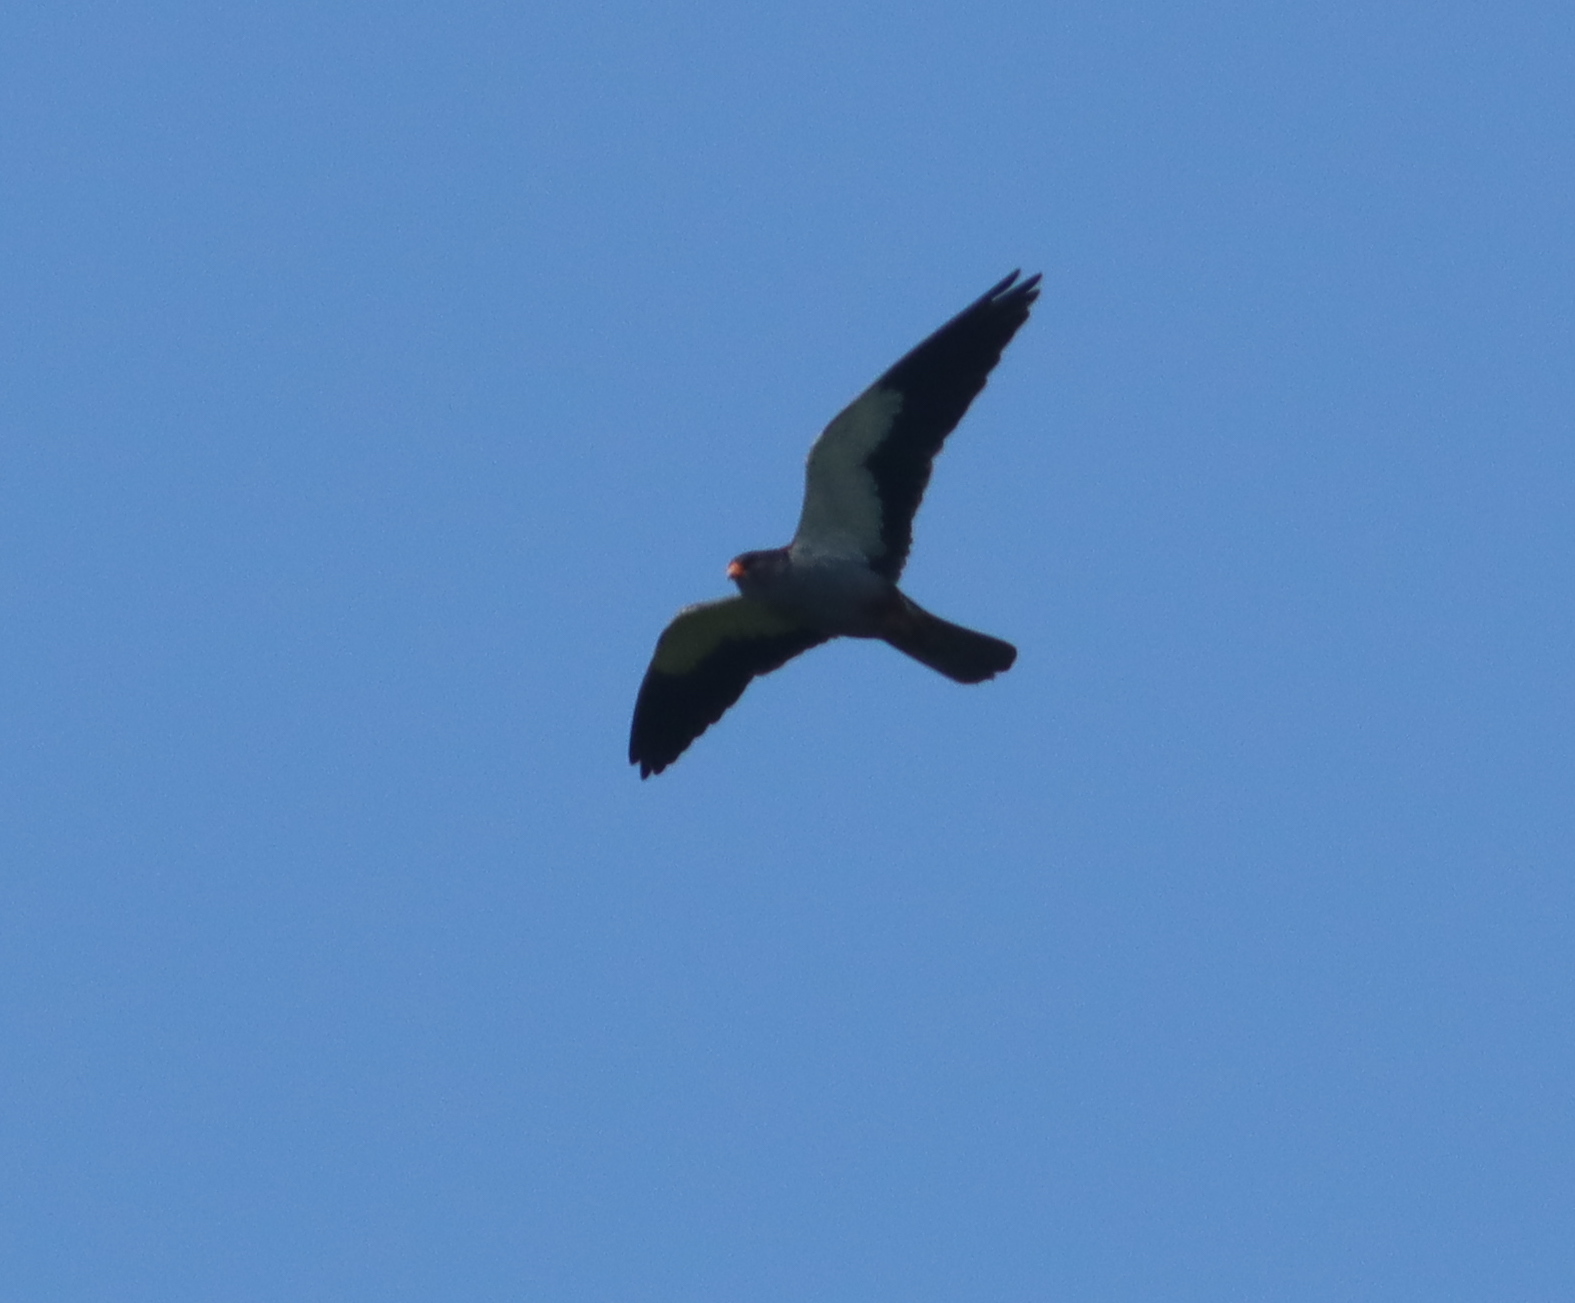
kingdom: Animalia
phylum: Chordata
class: Aves
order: Falconiformes
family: Falconidae
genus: Falco
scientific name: Falco amurensis
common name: Amur falcon
